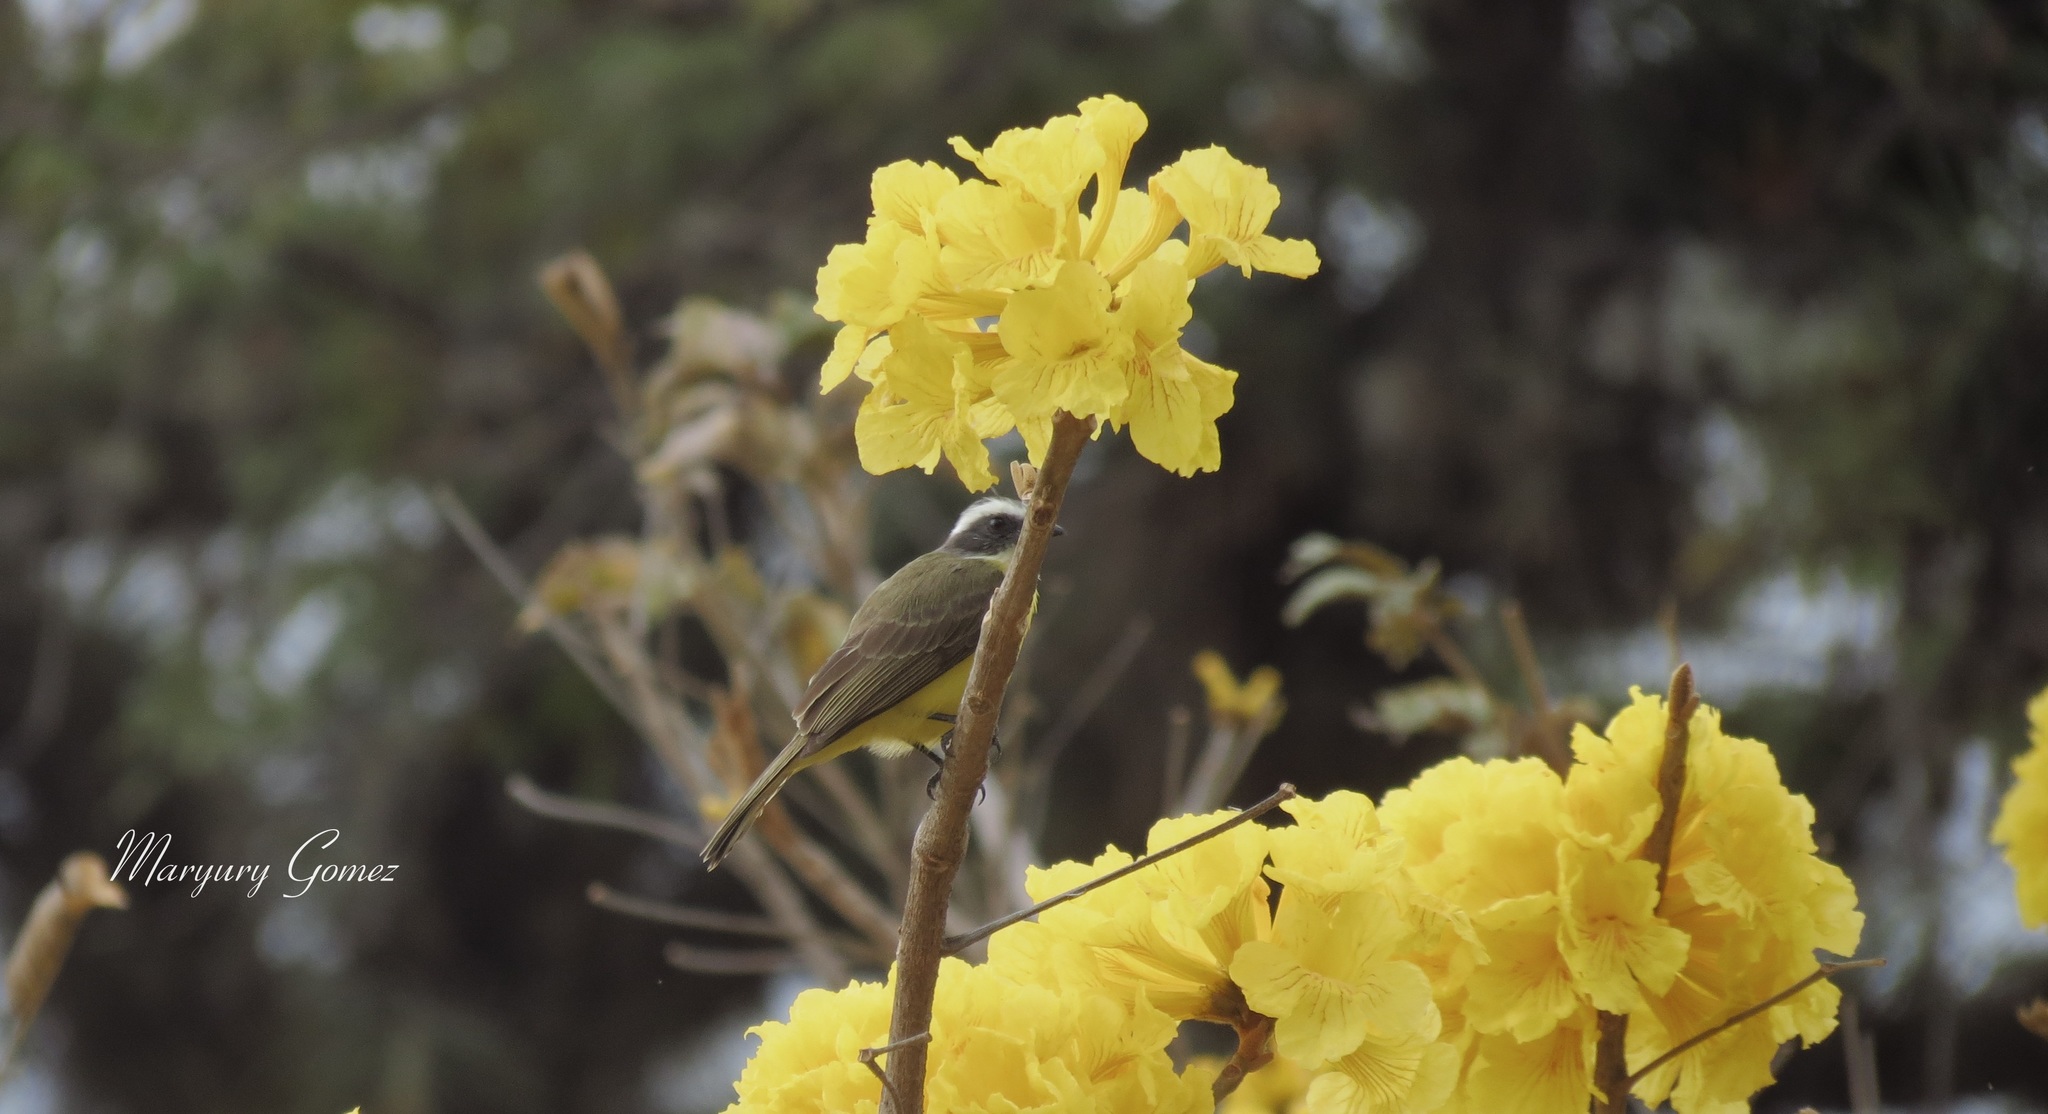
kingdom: Animalia
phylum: Chordata
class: Aves
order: Passeriformes
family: Tyrannidae
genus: Myiozetetes
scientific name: Myiozetetes similis
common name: Social flycatcher
